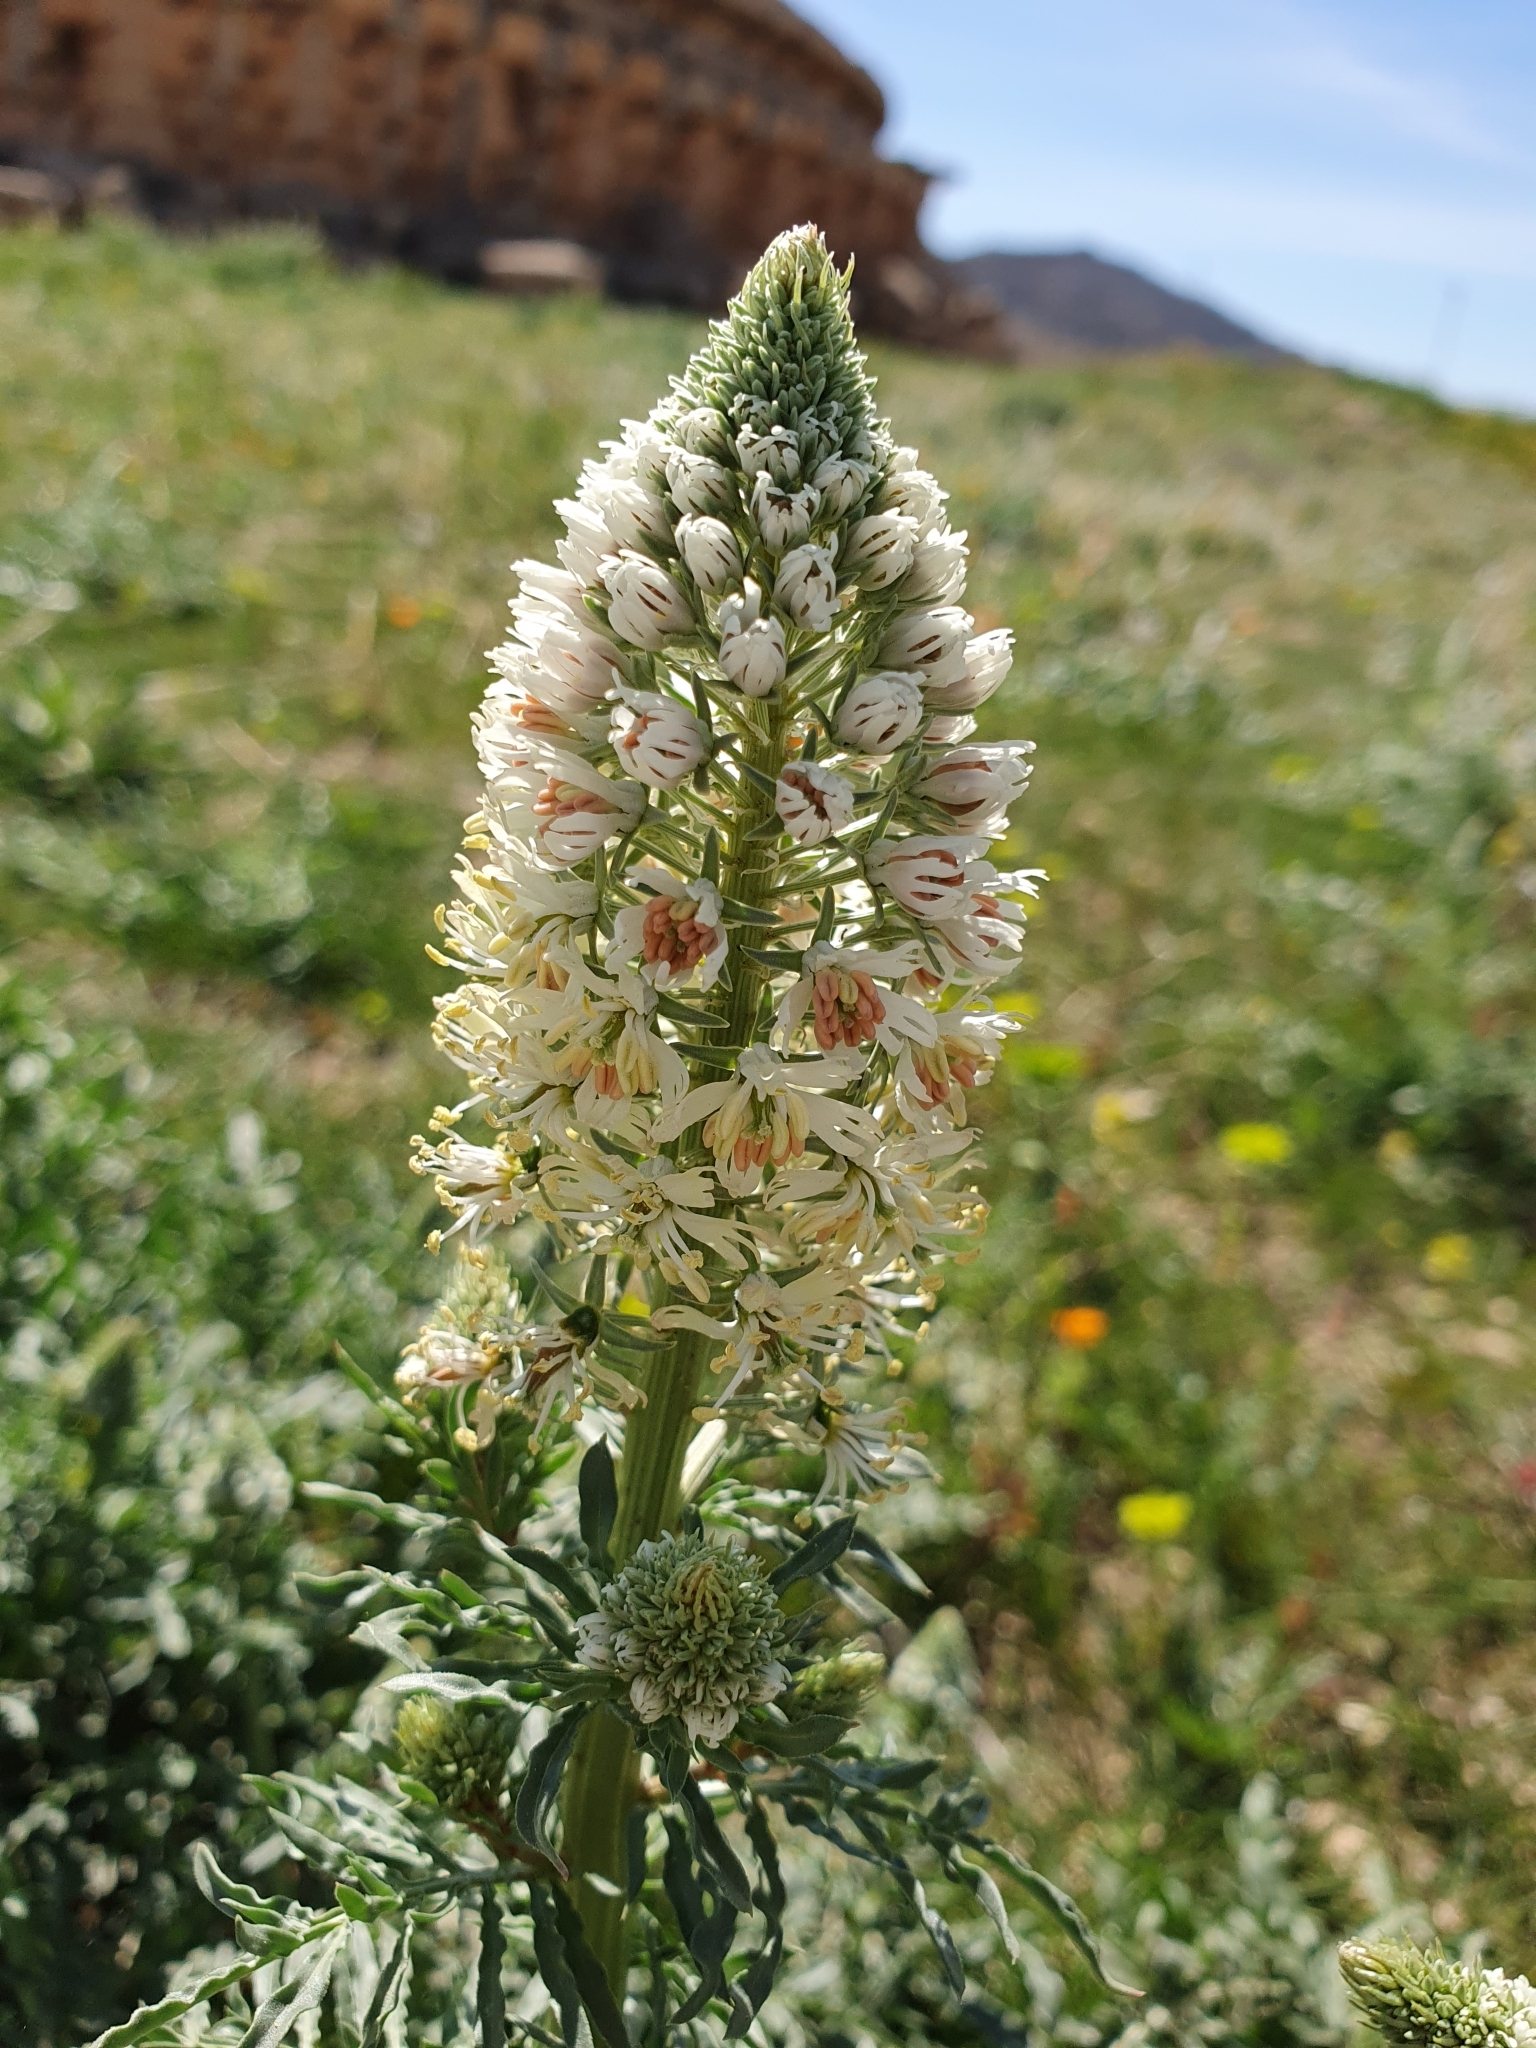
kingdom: Plantae
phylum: Tracheophyta
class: Magnoliopsida
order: Brassicales
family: Resedaceae
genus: Reseda
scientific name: Reseda alba
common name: White mignonette
